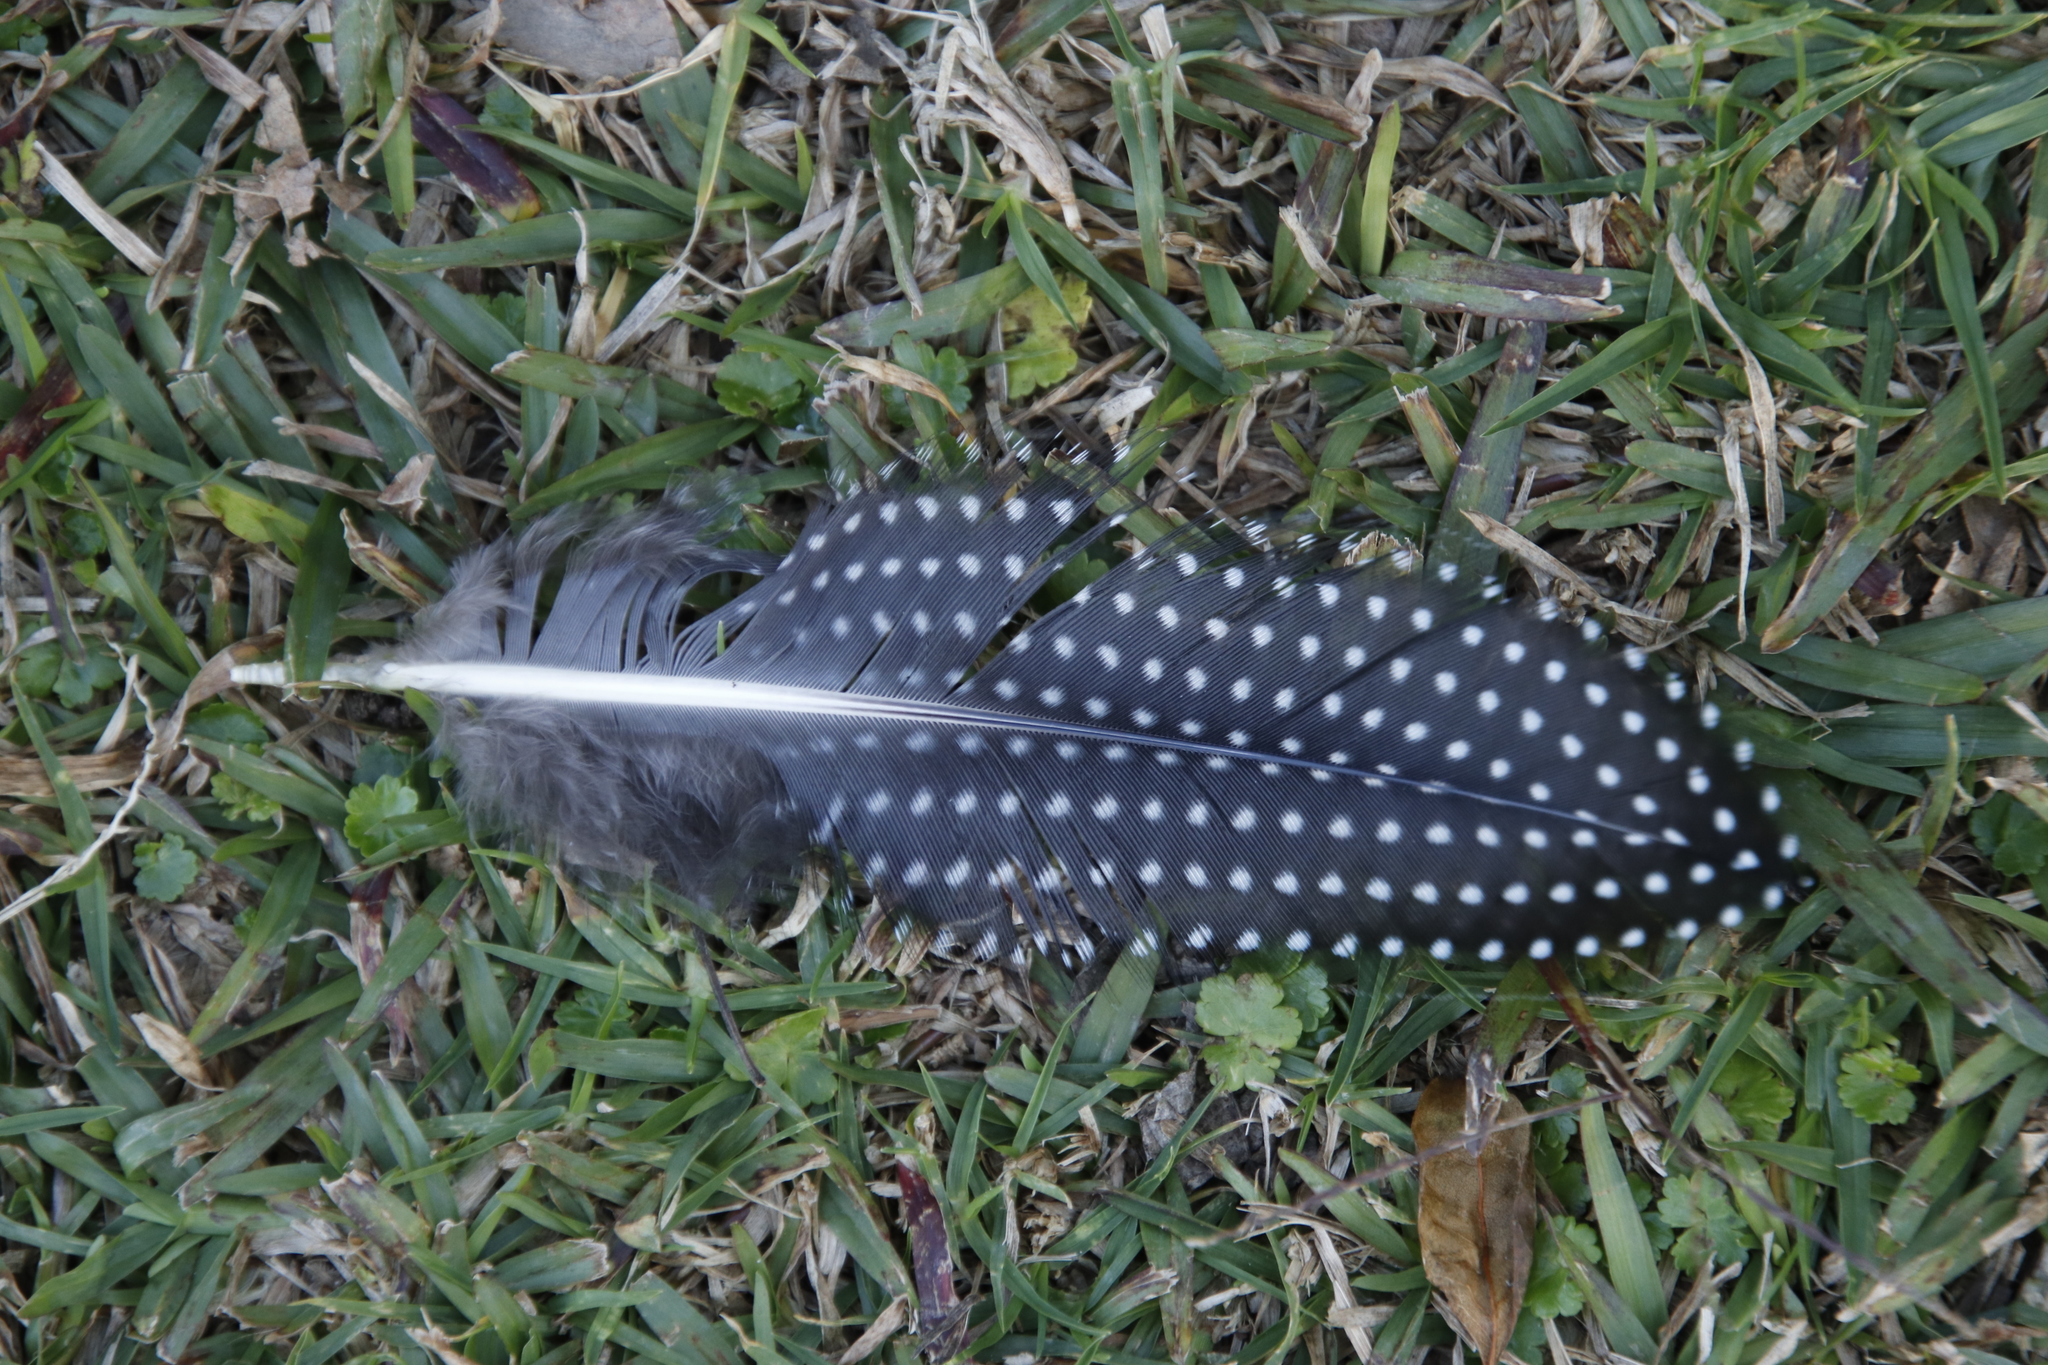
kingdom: Animalia
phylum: Chordata
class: Aves
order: Galliformes
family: Numididae
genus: Numida
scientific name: Numida meleagris
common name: Helmeted guineafowl
